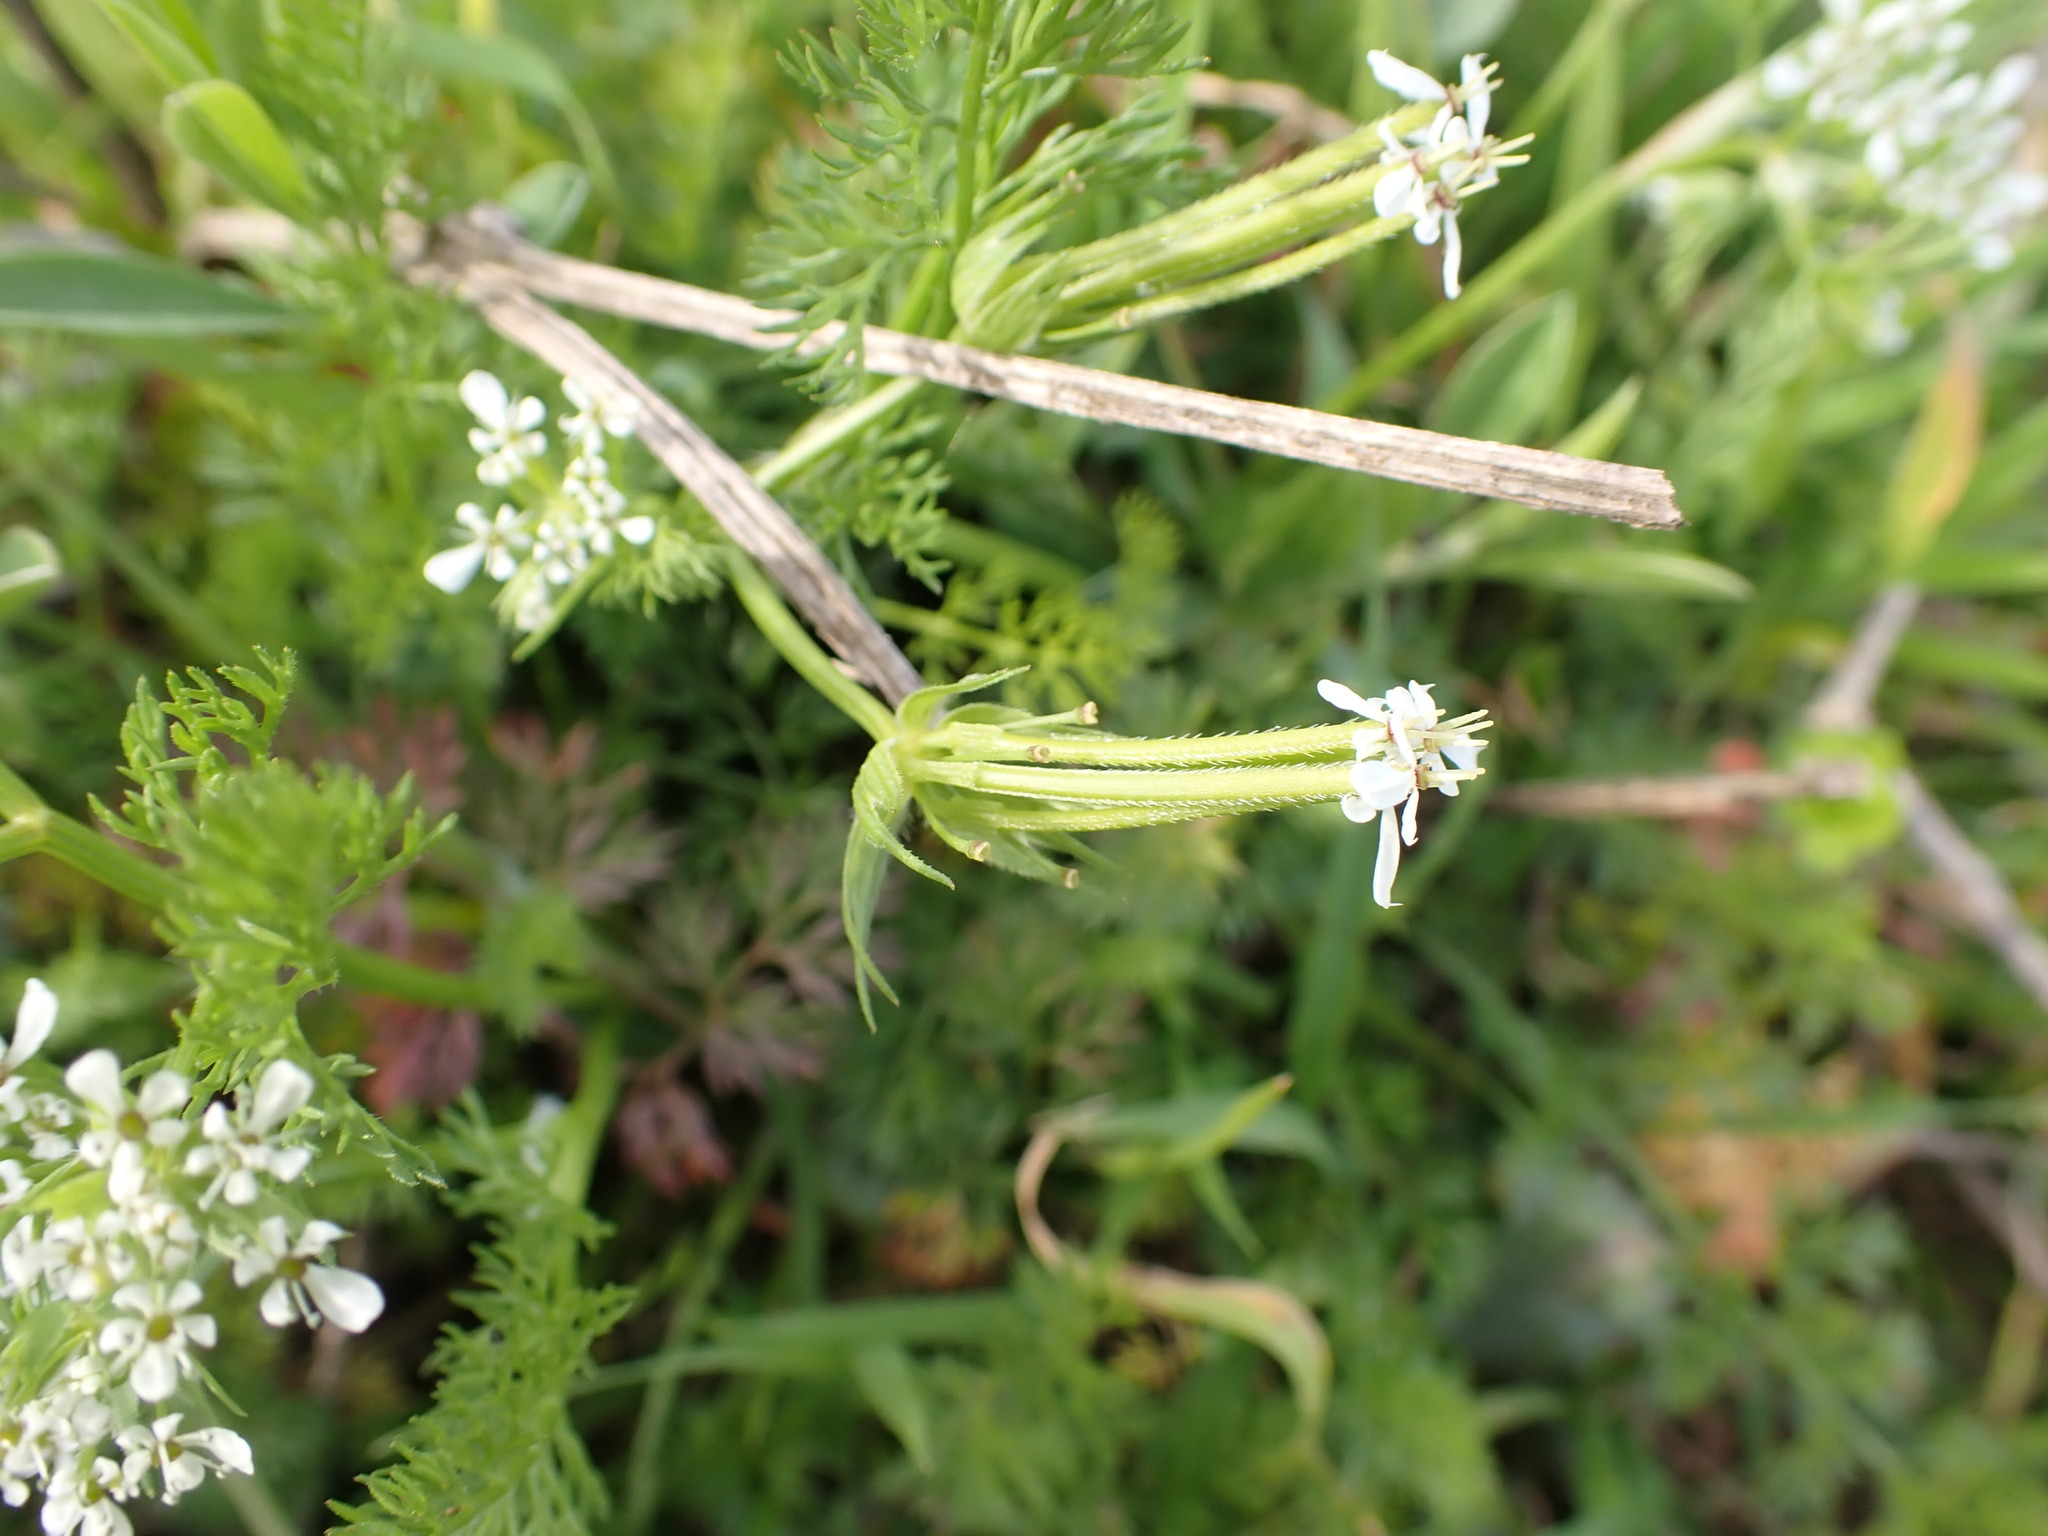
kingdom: Plantae
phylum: Tracheophyta
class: Magnoliopsida
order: Apiales
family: Apiaceae
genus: Scandix
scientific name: Scandix pecten-veneris
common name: Shepherd's-needle
